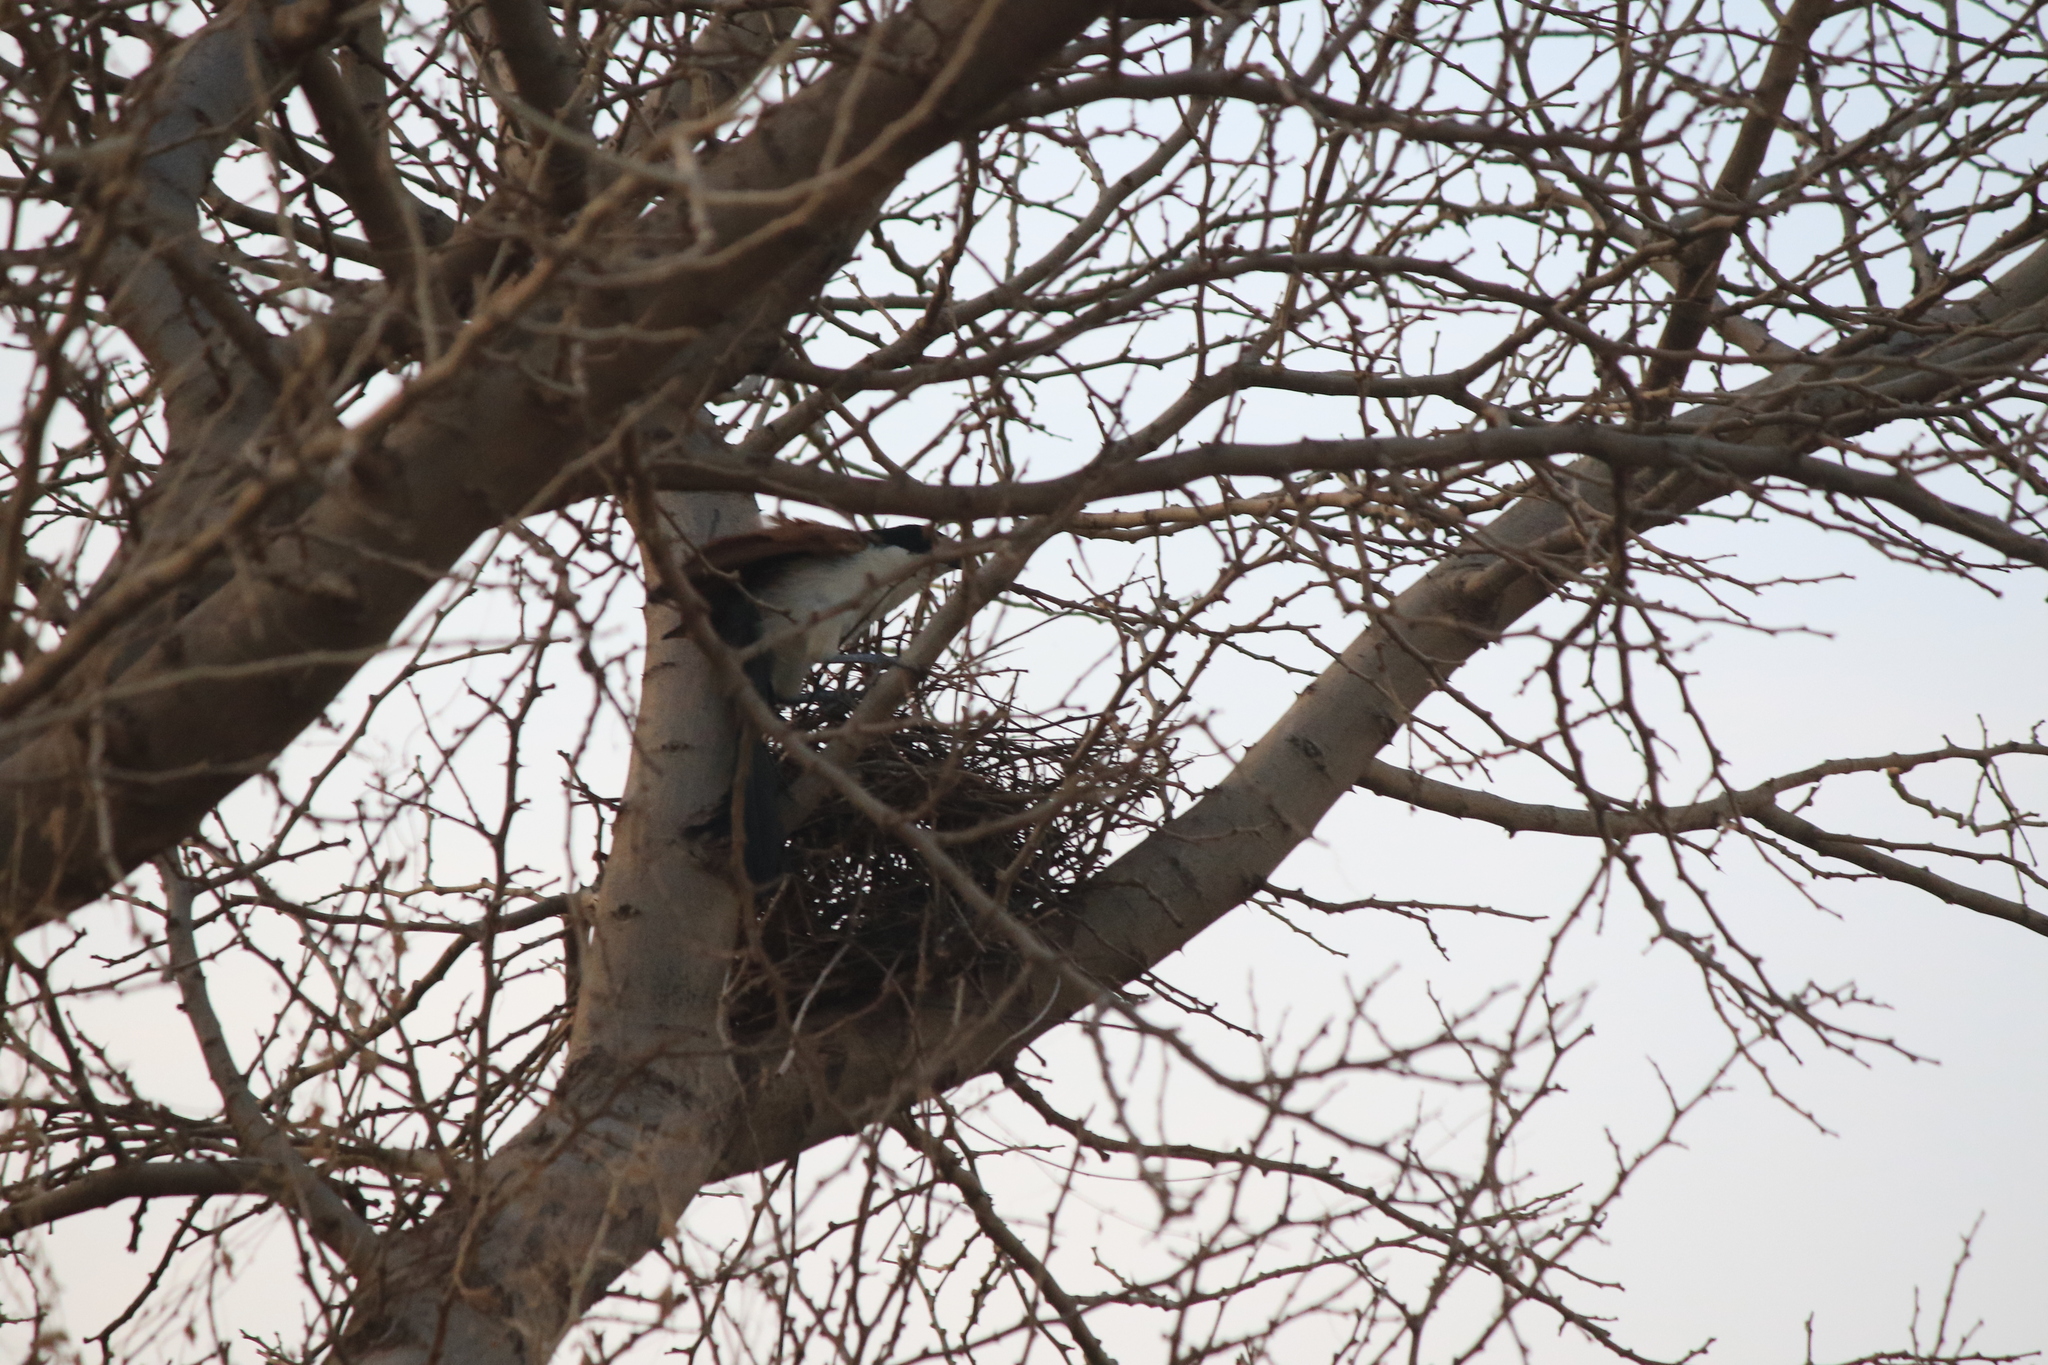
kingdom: Animalia
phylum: Chordata
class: Aves
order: Cuculiformes
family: Cuculidae
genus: Centropus
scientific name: Centropus senegalensis
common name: Senegal coucal
